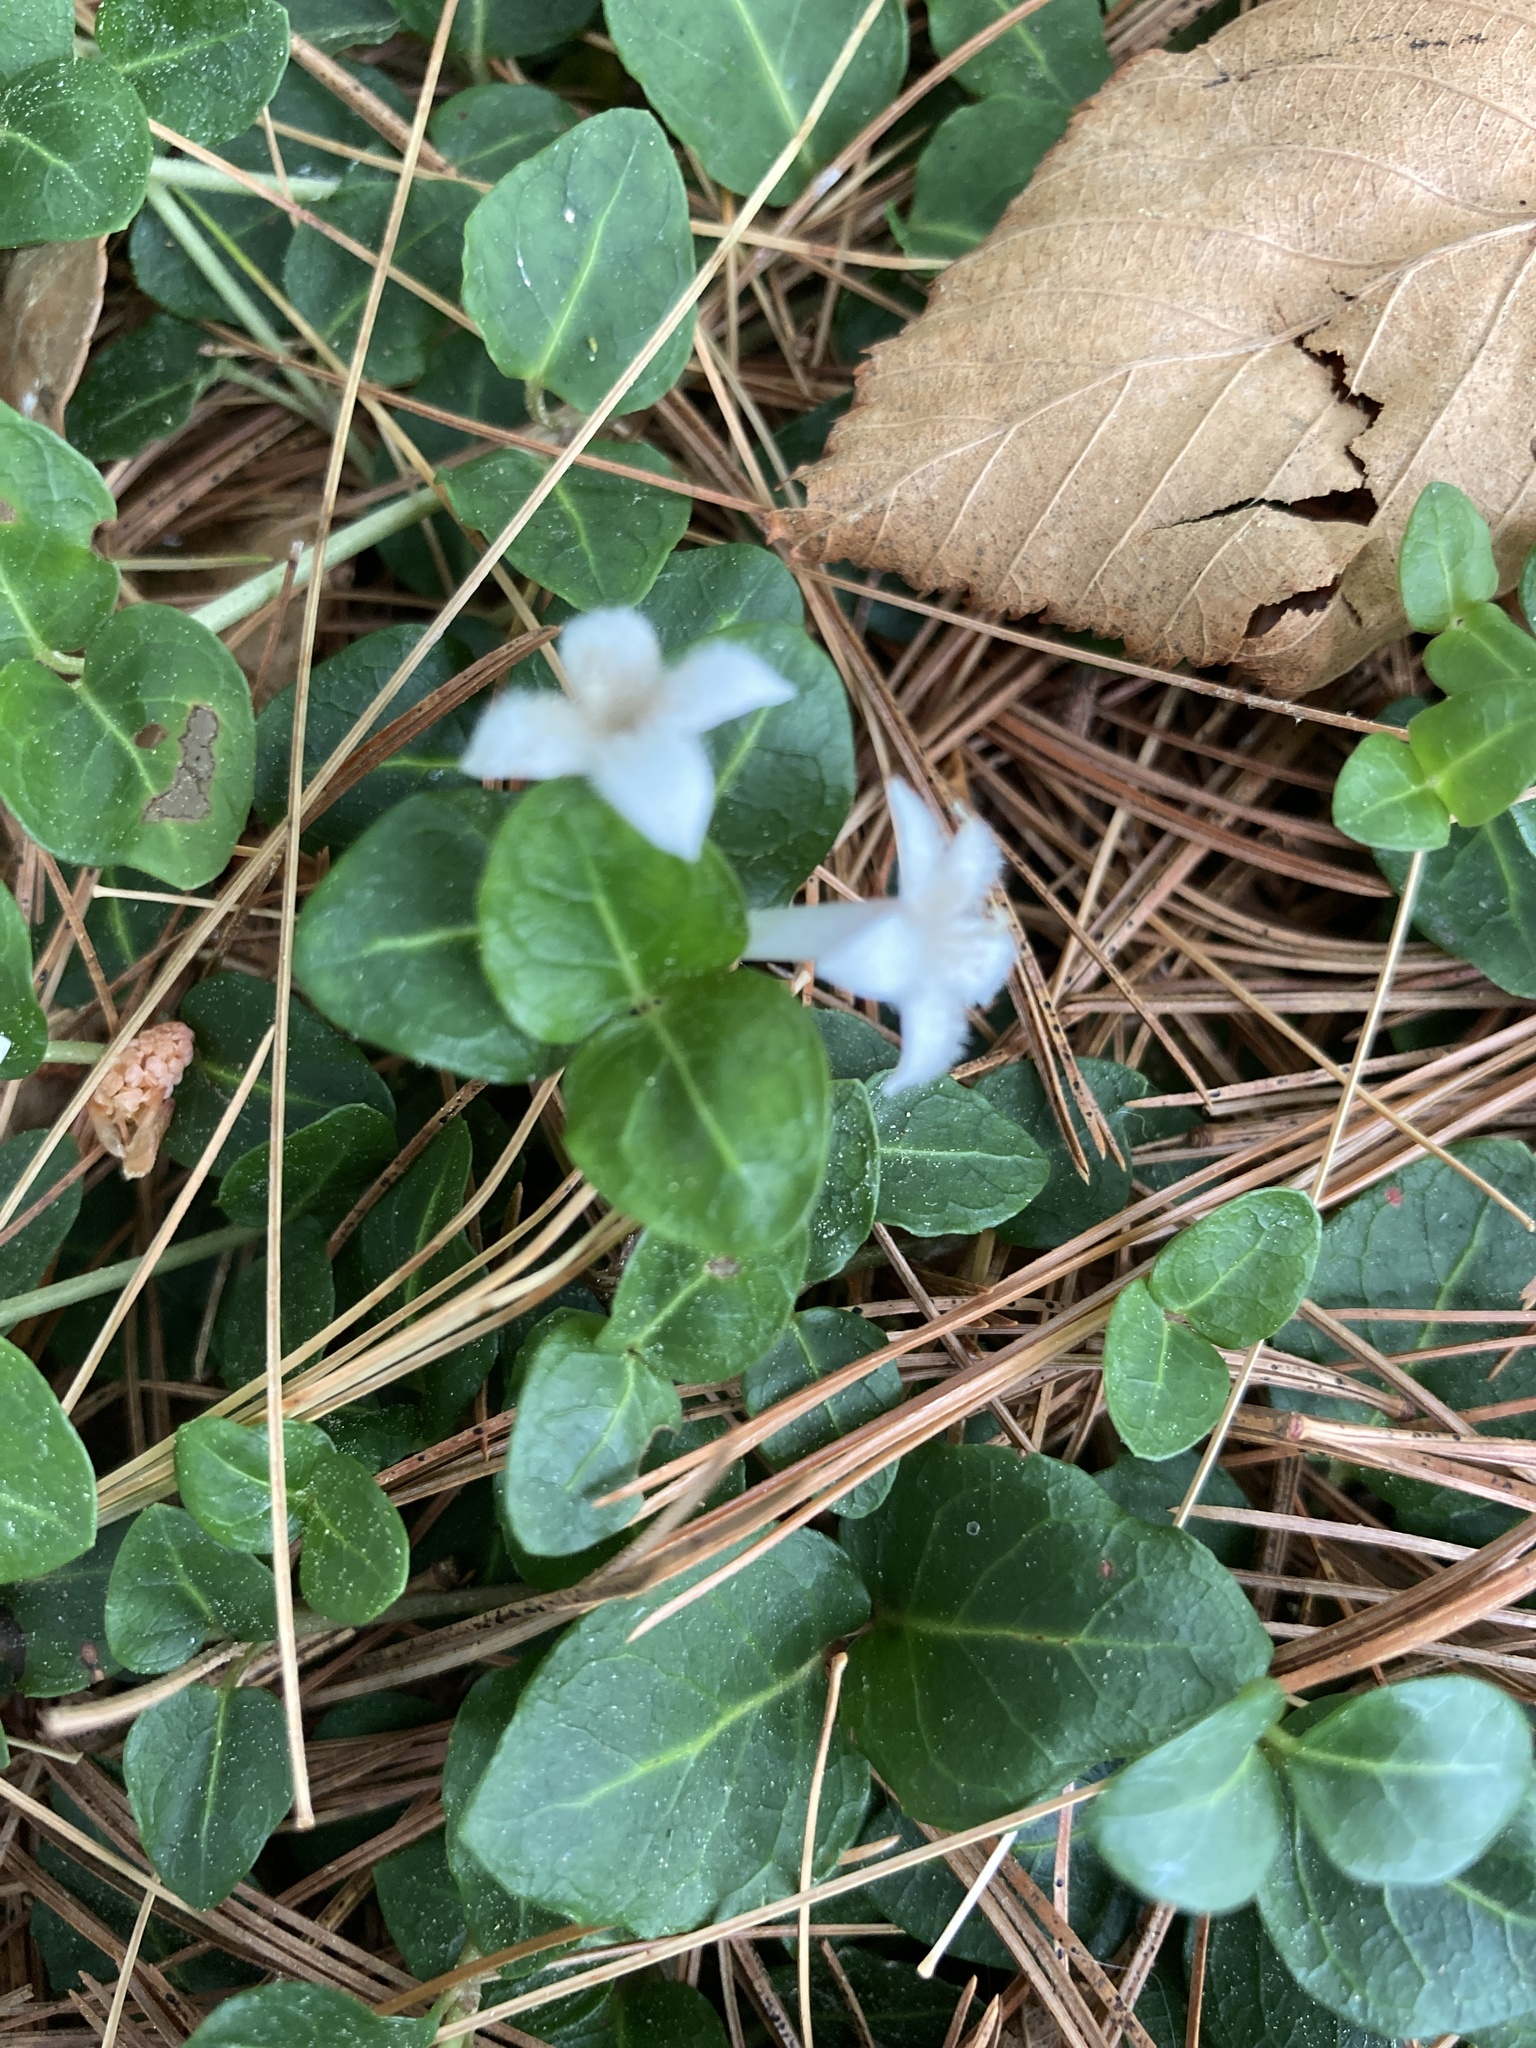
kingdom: Plantae
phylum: Tracheophyta
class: Magnoliopsida
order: Gentianales
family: Rubiaceae
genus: Mitchella
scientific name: Mitchella repens
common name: Partridge-berry
